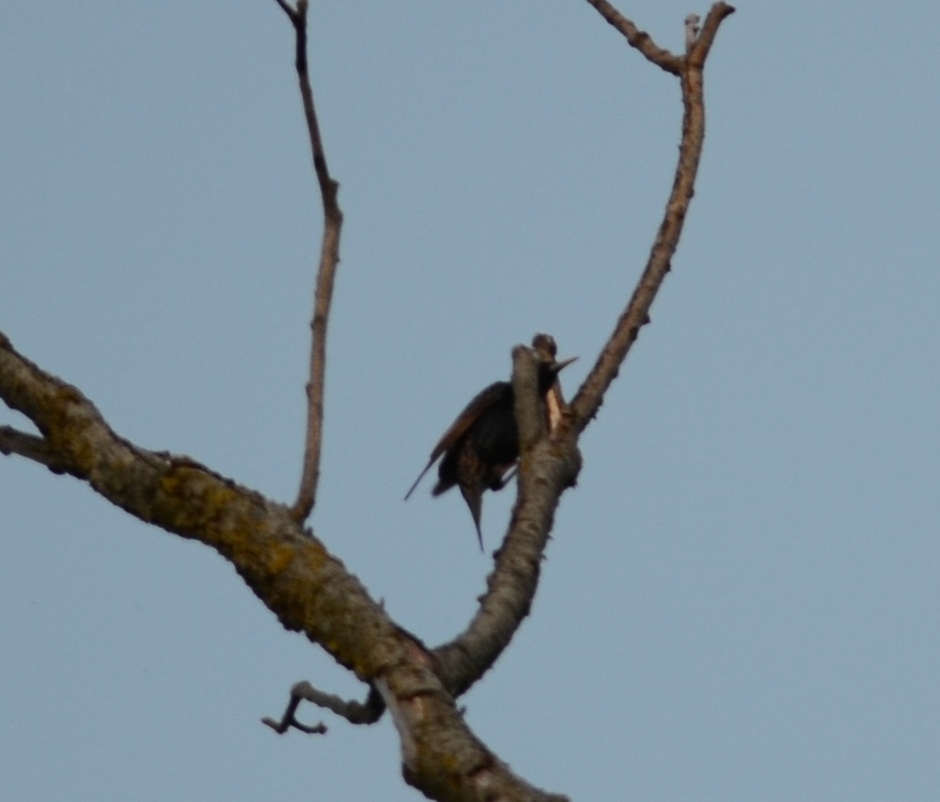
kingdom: Animalia
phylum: Chordata
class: Aves
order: Passeriformes
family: Sturnidae
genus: Sturnus
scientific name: Sturnus vulgaris
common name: Common starling
